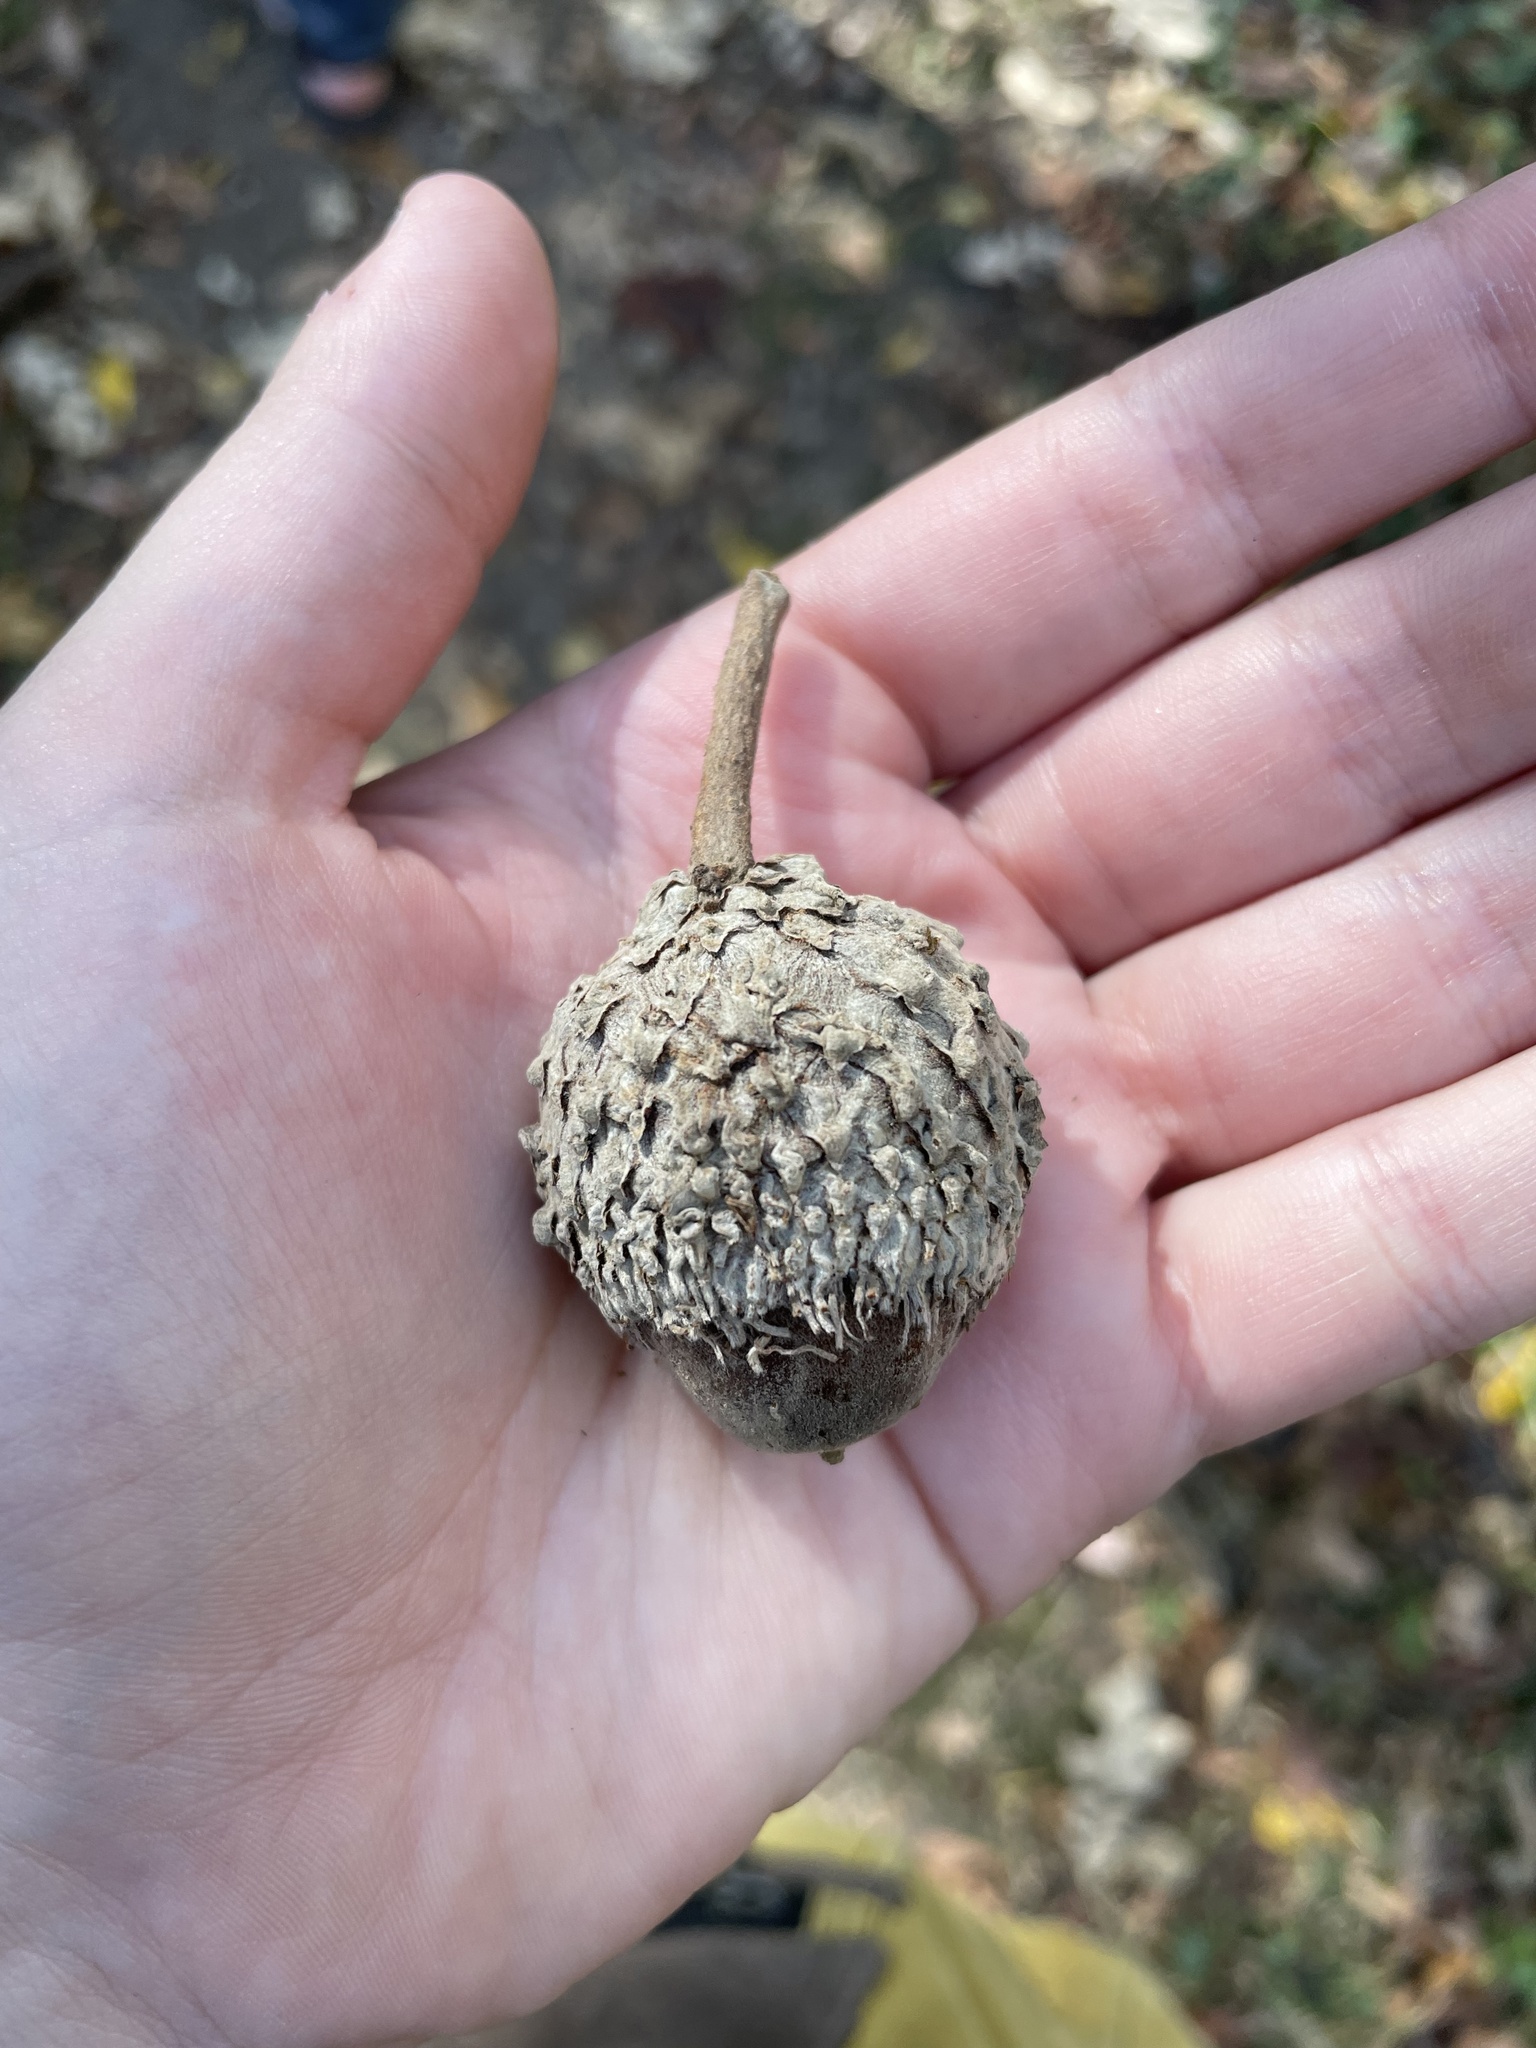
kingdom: Plantae
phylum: Tracheophyta
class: Magnoliopsida
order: Fagales
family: Fagaceae
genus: Quercus
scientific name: Quercus macrocarpa
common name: Bur oak
